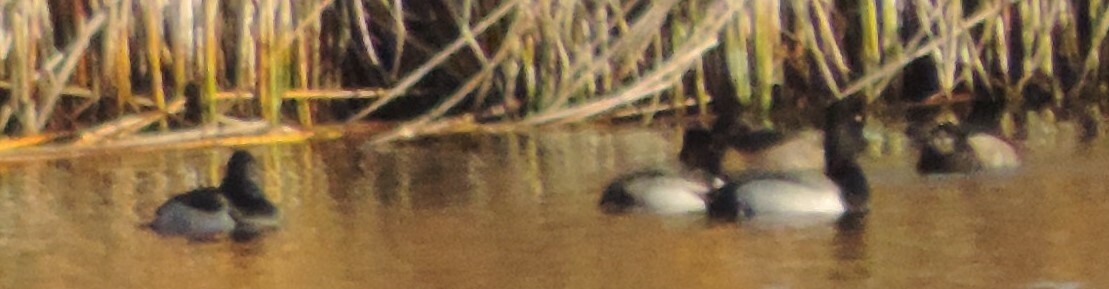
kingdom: Animalia
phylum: Chordata
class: Aves
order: Anseriformes
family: Anatidae
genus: Aythya
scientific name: Aythya collaris
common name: Ring-necked duck
